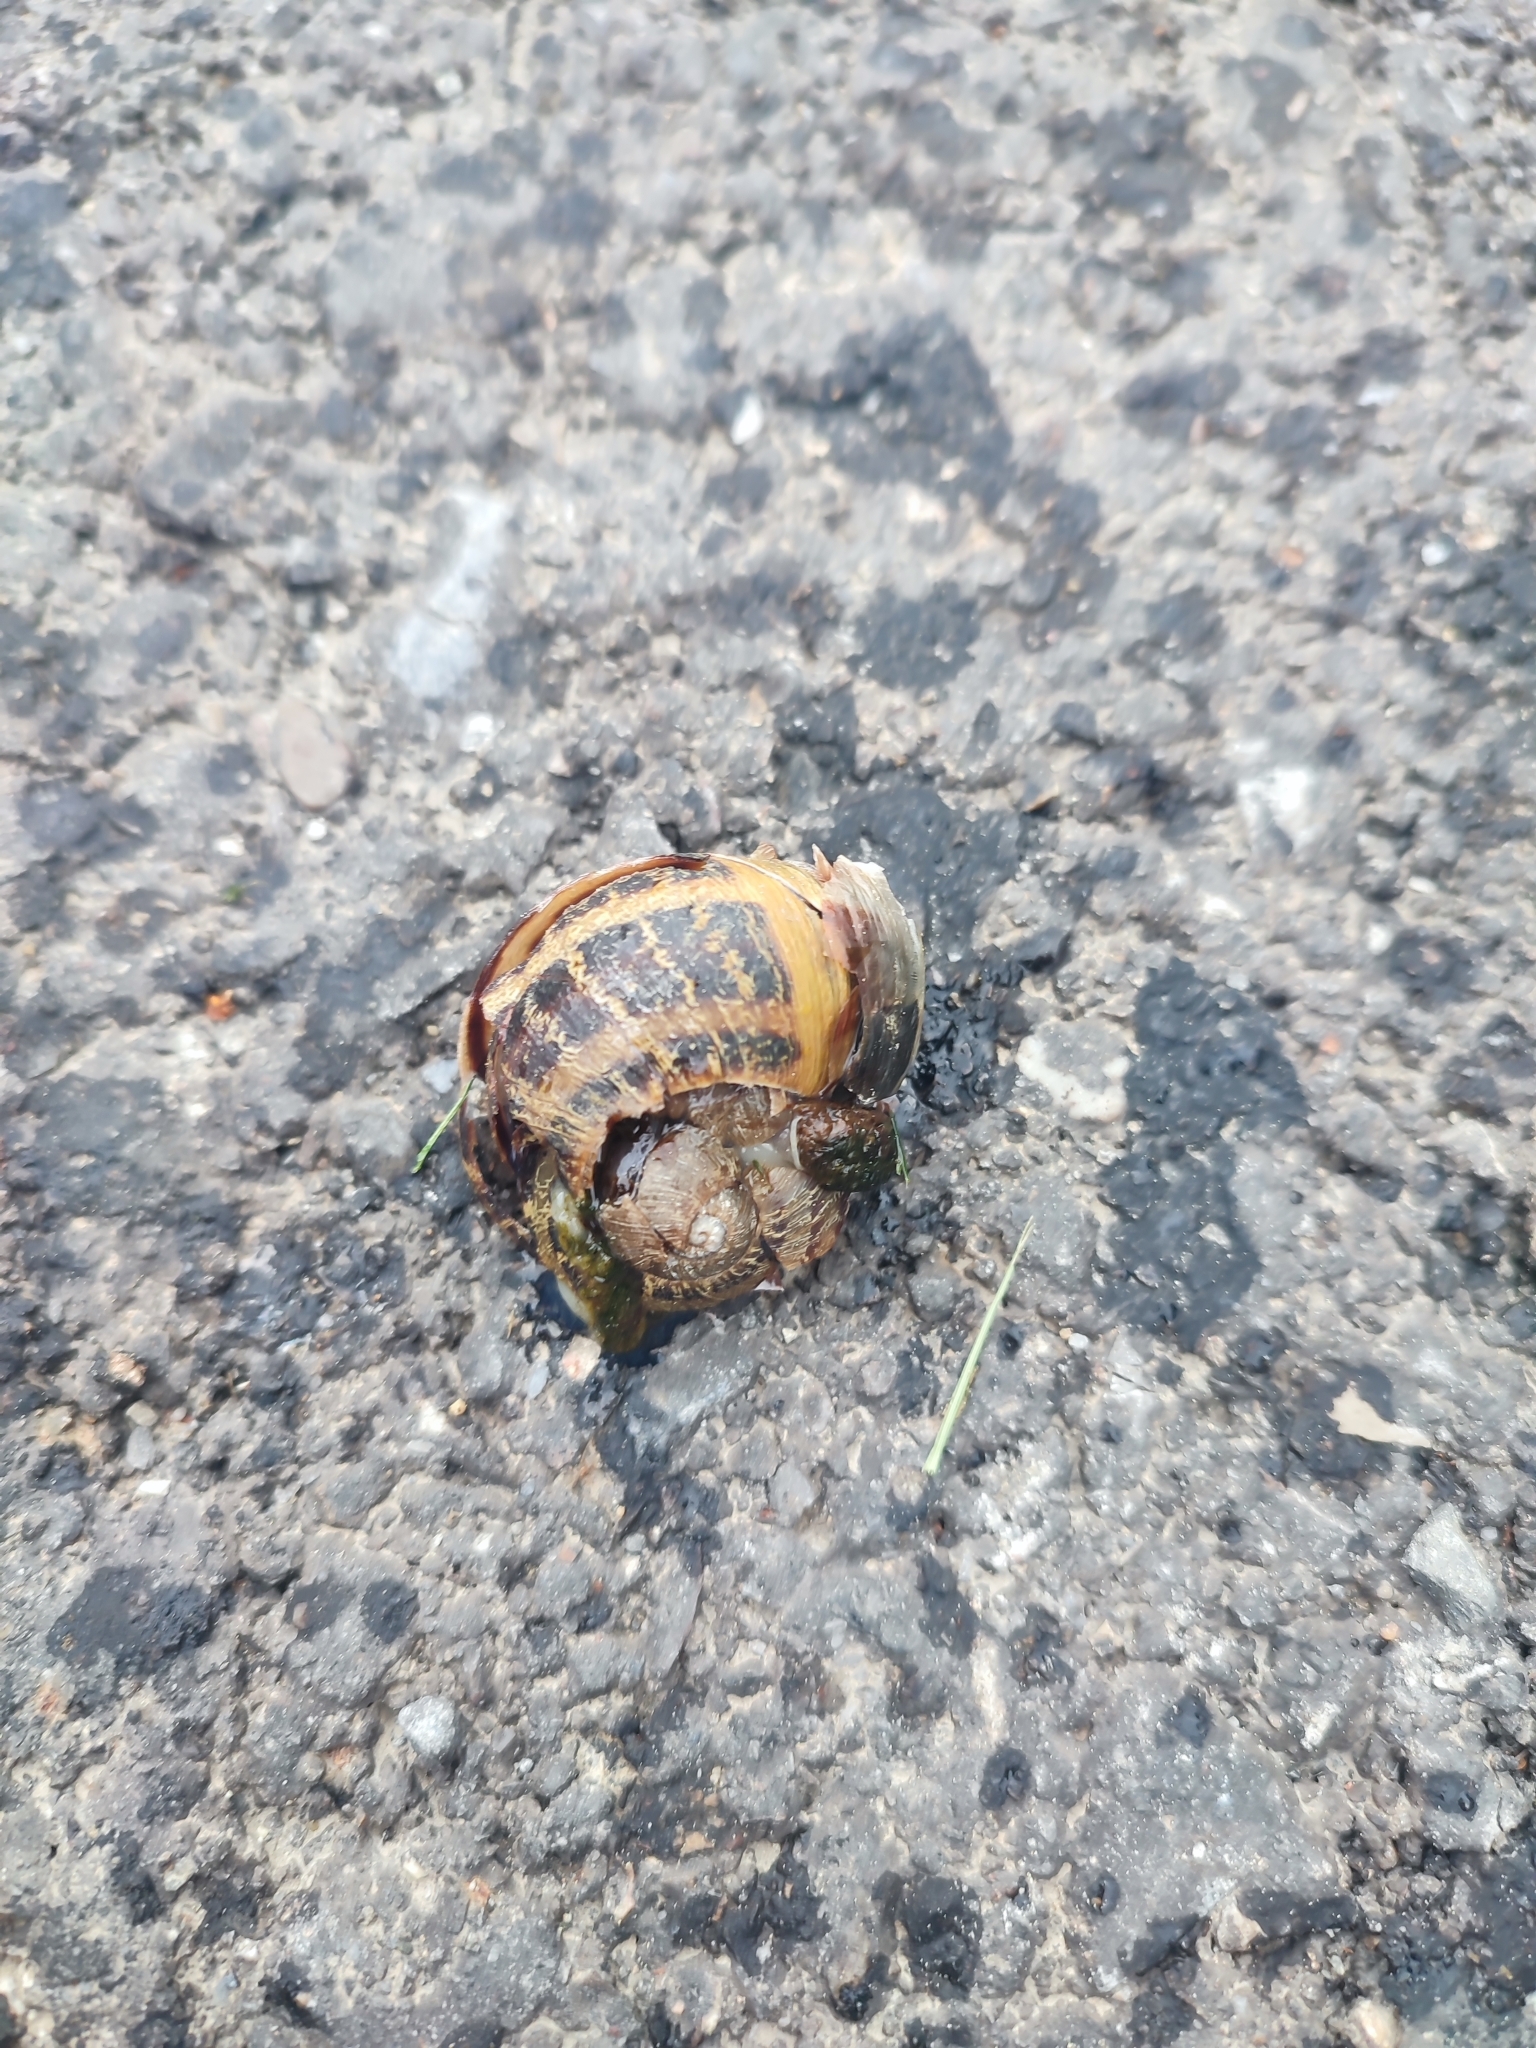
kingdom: Animalia
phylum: Mollusca
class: Gastropoda
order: Stylommatophora
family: Helicidae
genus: Cornu
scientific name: Cornu aspersum
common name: Brown garden snail
